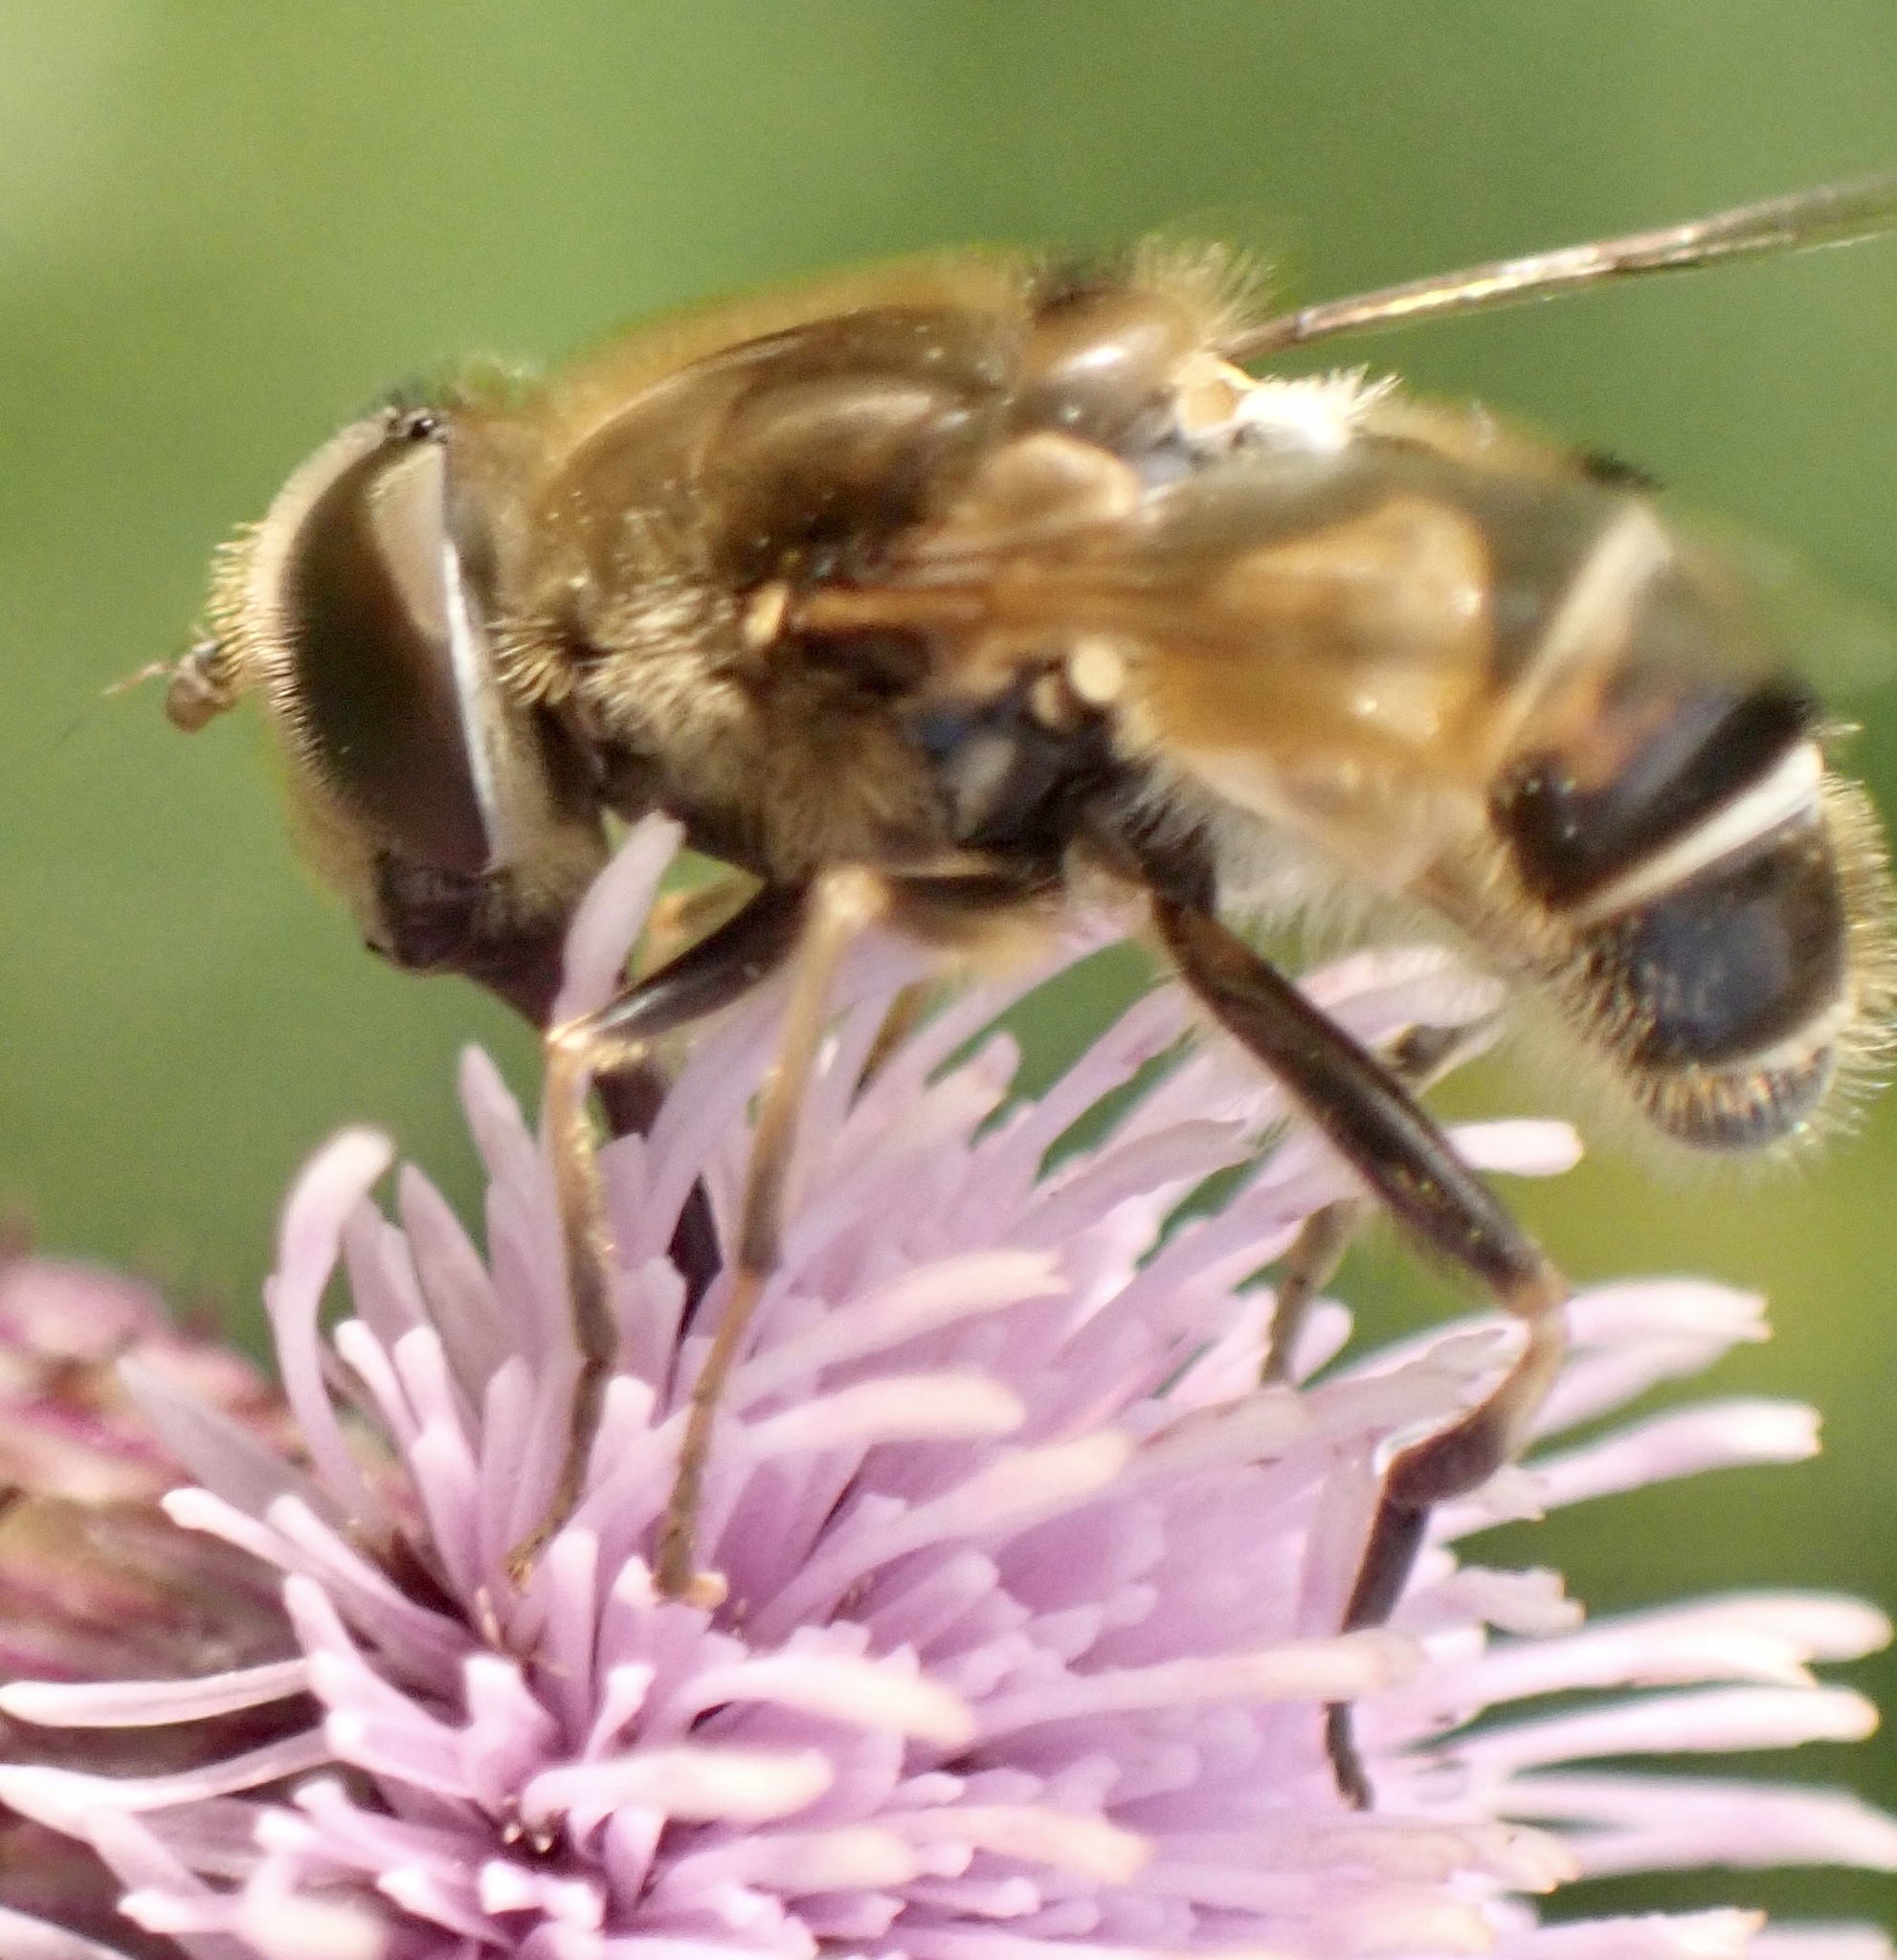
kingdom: Animalia
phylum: Arthropoda
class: Insecta
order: Diptera
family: Syrphidae
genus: Eristalis
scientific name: Eristalis nemorum
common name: Orange-spined drone fly
